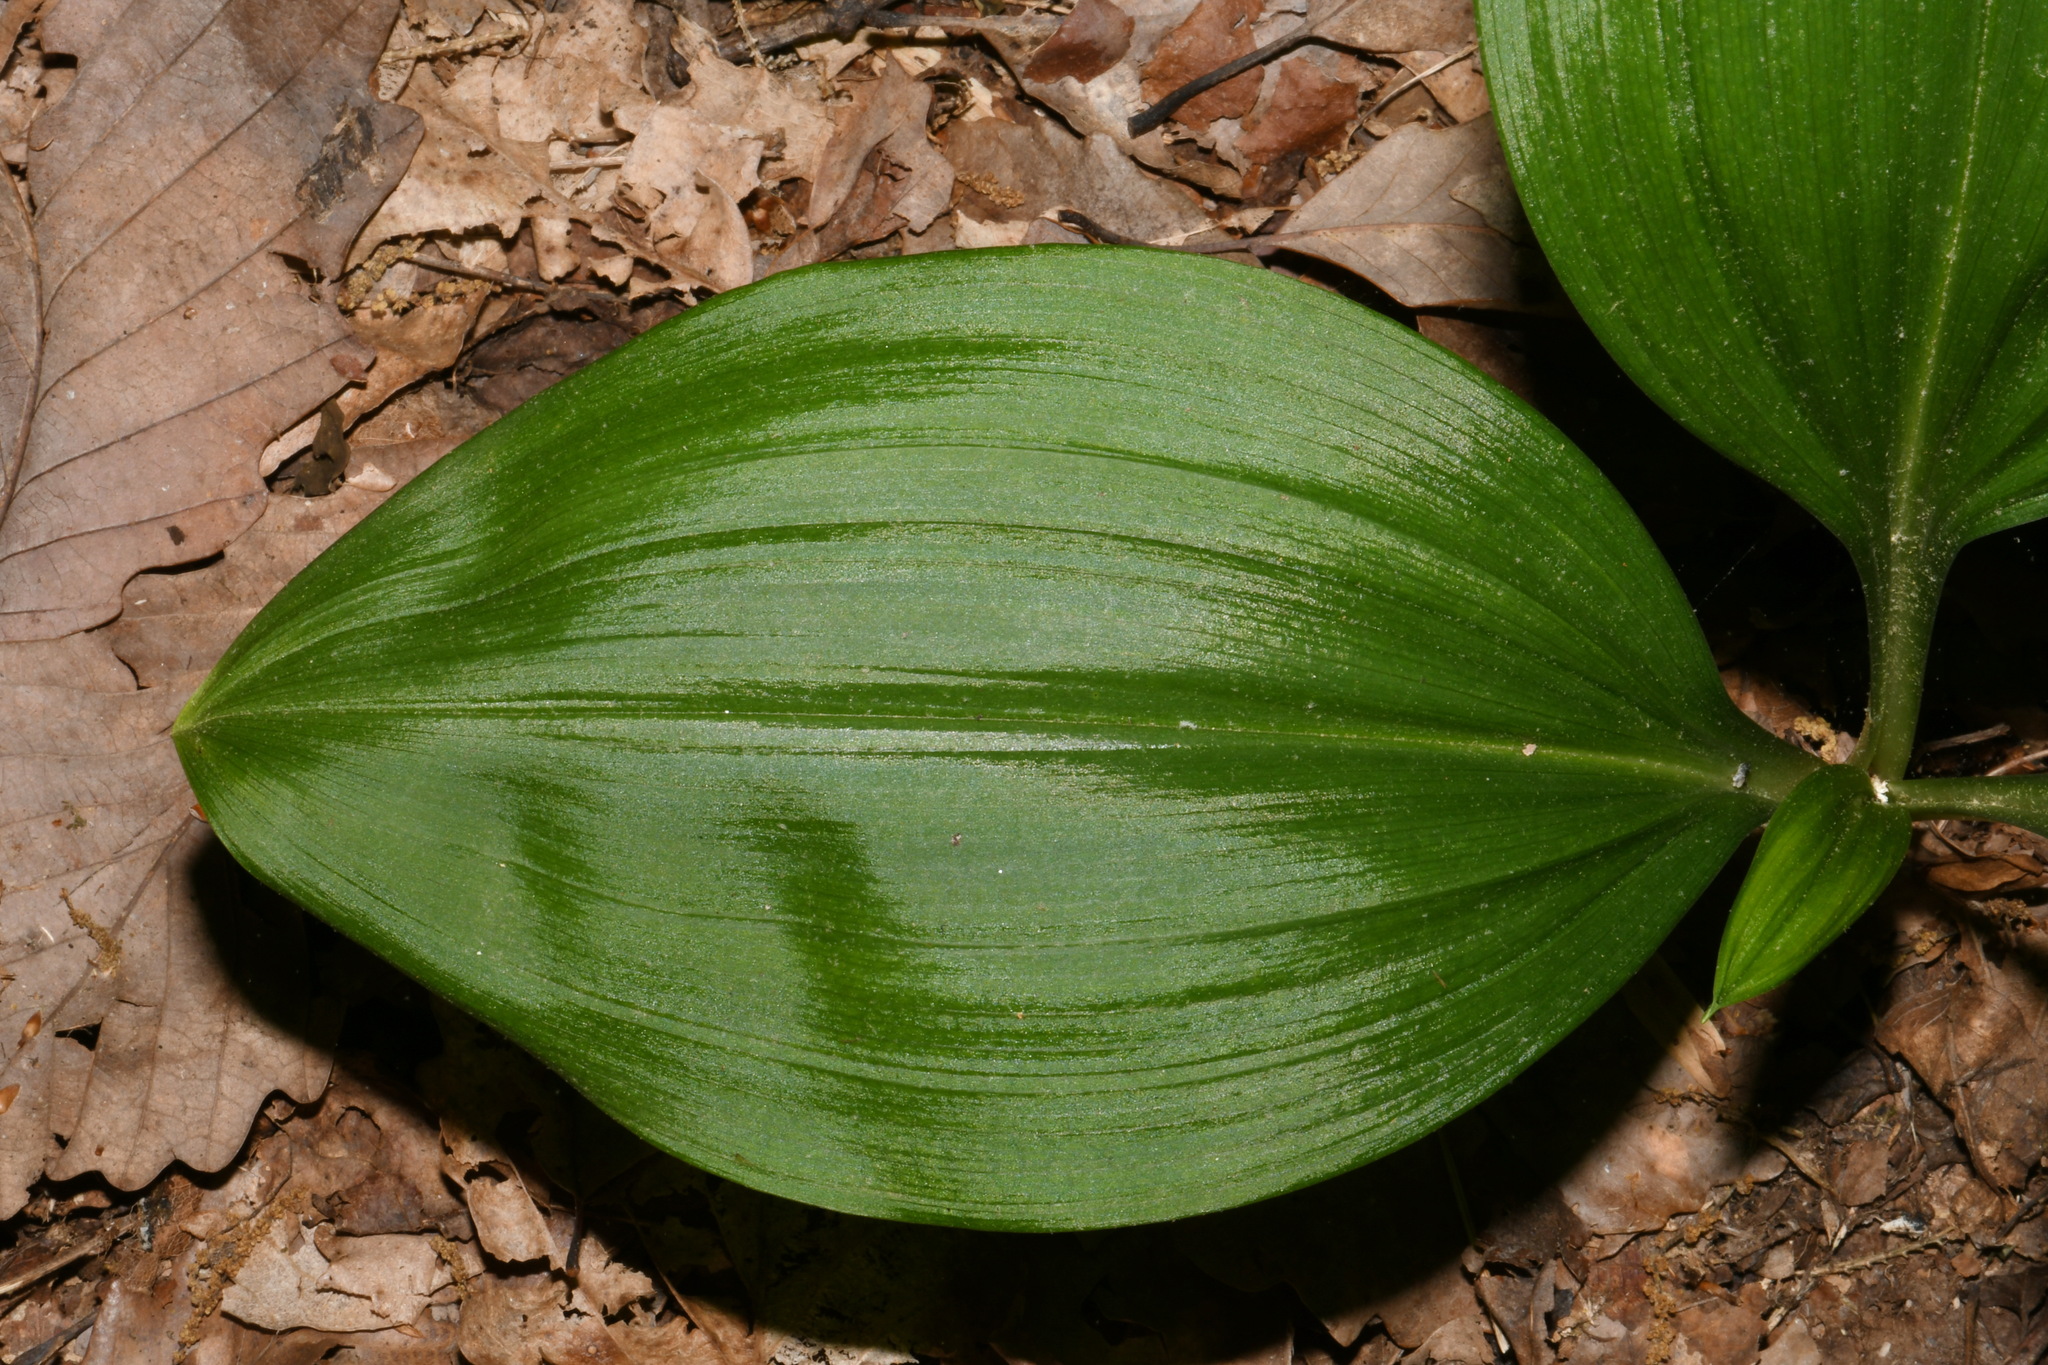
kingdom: Plantae
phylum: Tracheophyta
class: Liliopsida
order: Liliales
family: Melanthiaceae
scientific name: Melanthiaceae
